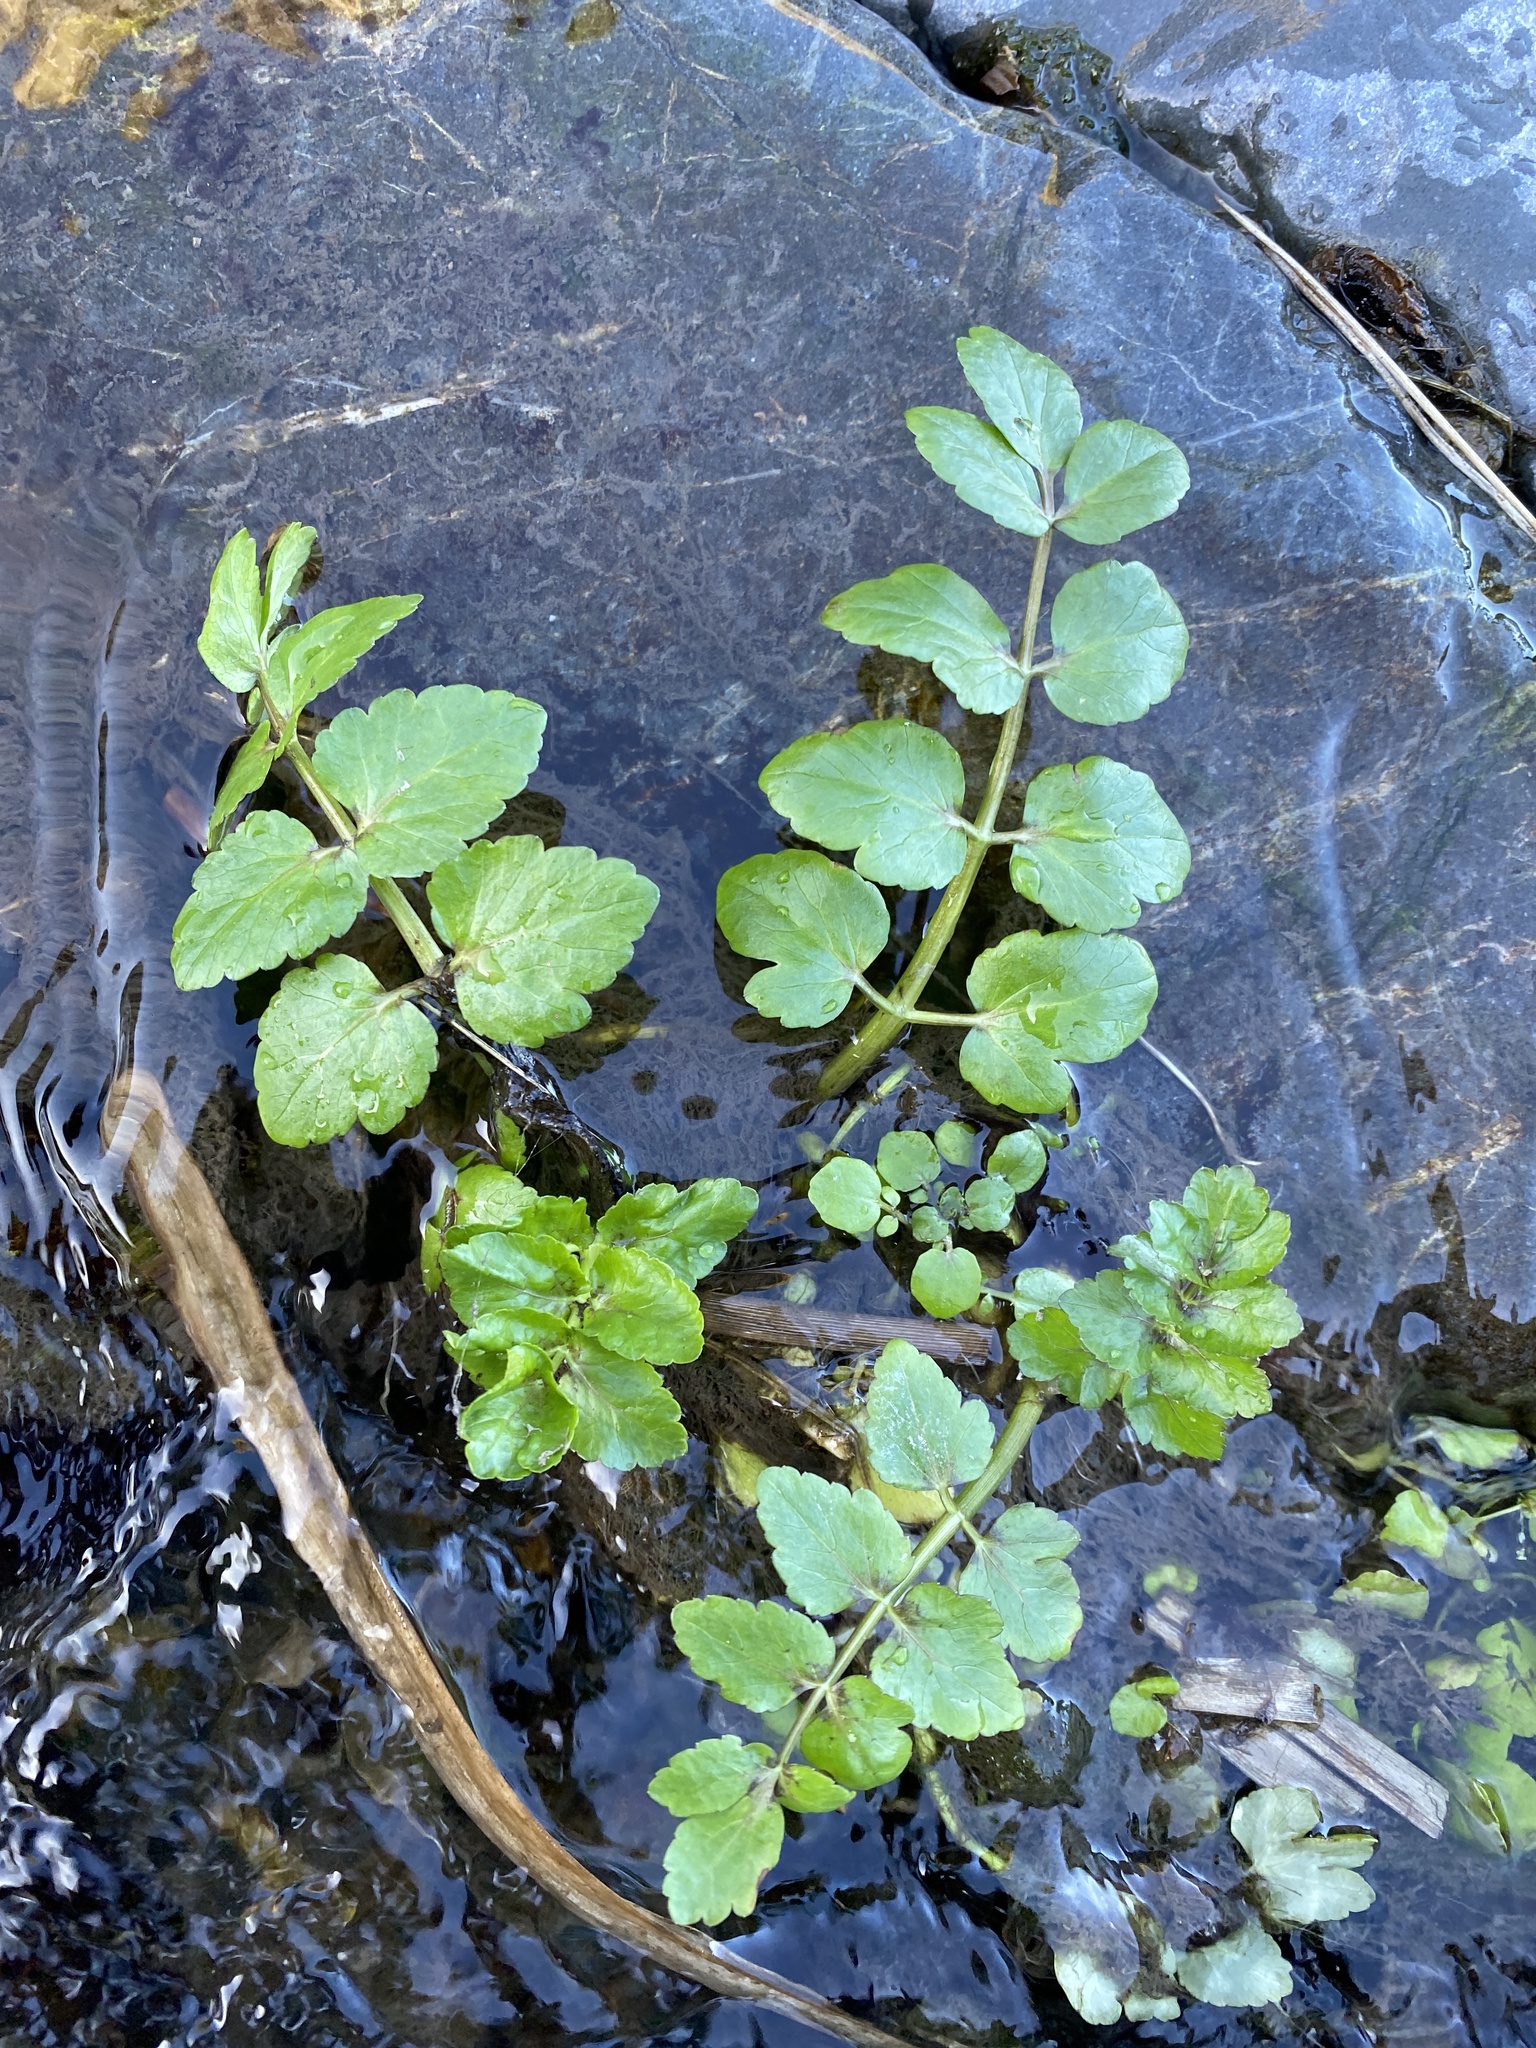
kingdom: Plantae
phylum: Tracheophyta
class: Magnoliopsida
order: Apiales
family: Apiaceae
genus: Helosciadium
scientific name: Helosciadium nodiflorum
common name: Fool's-watercress
